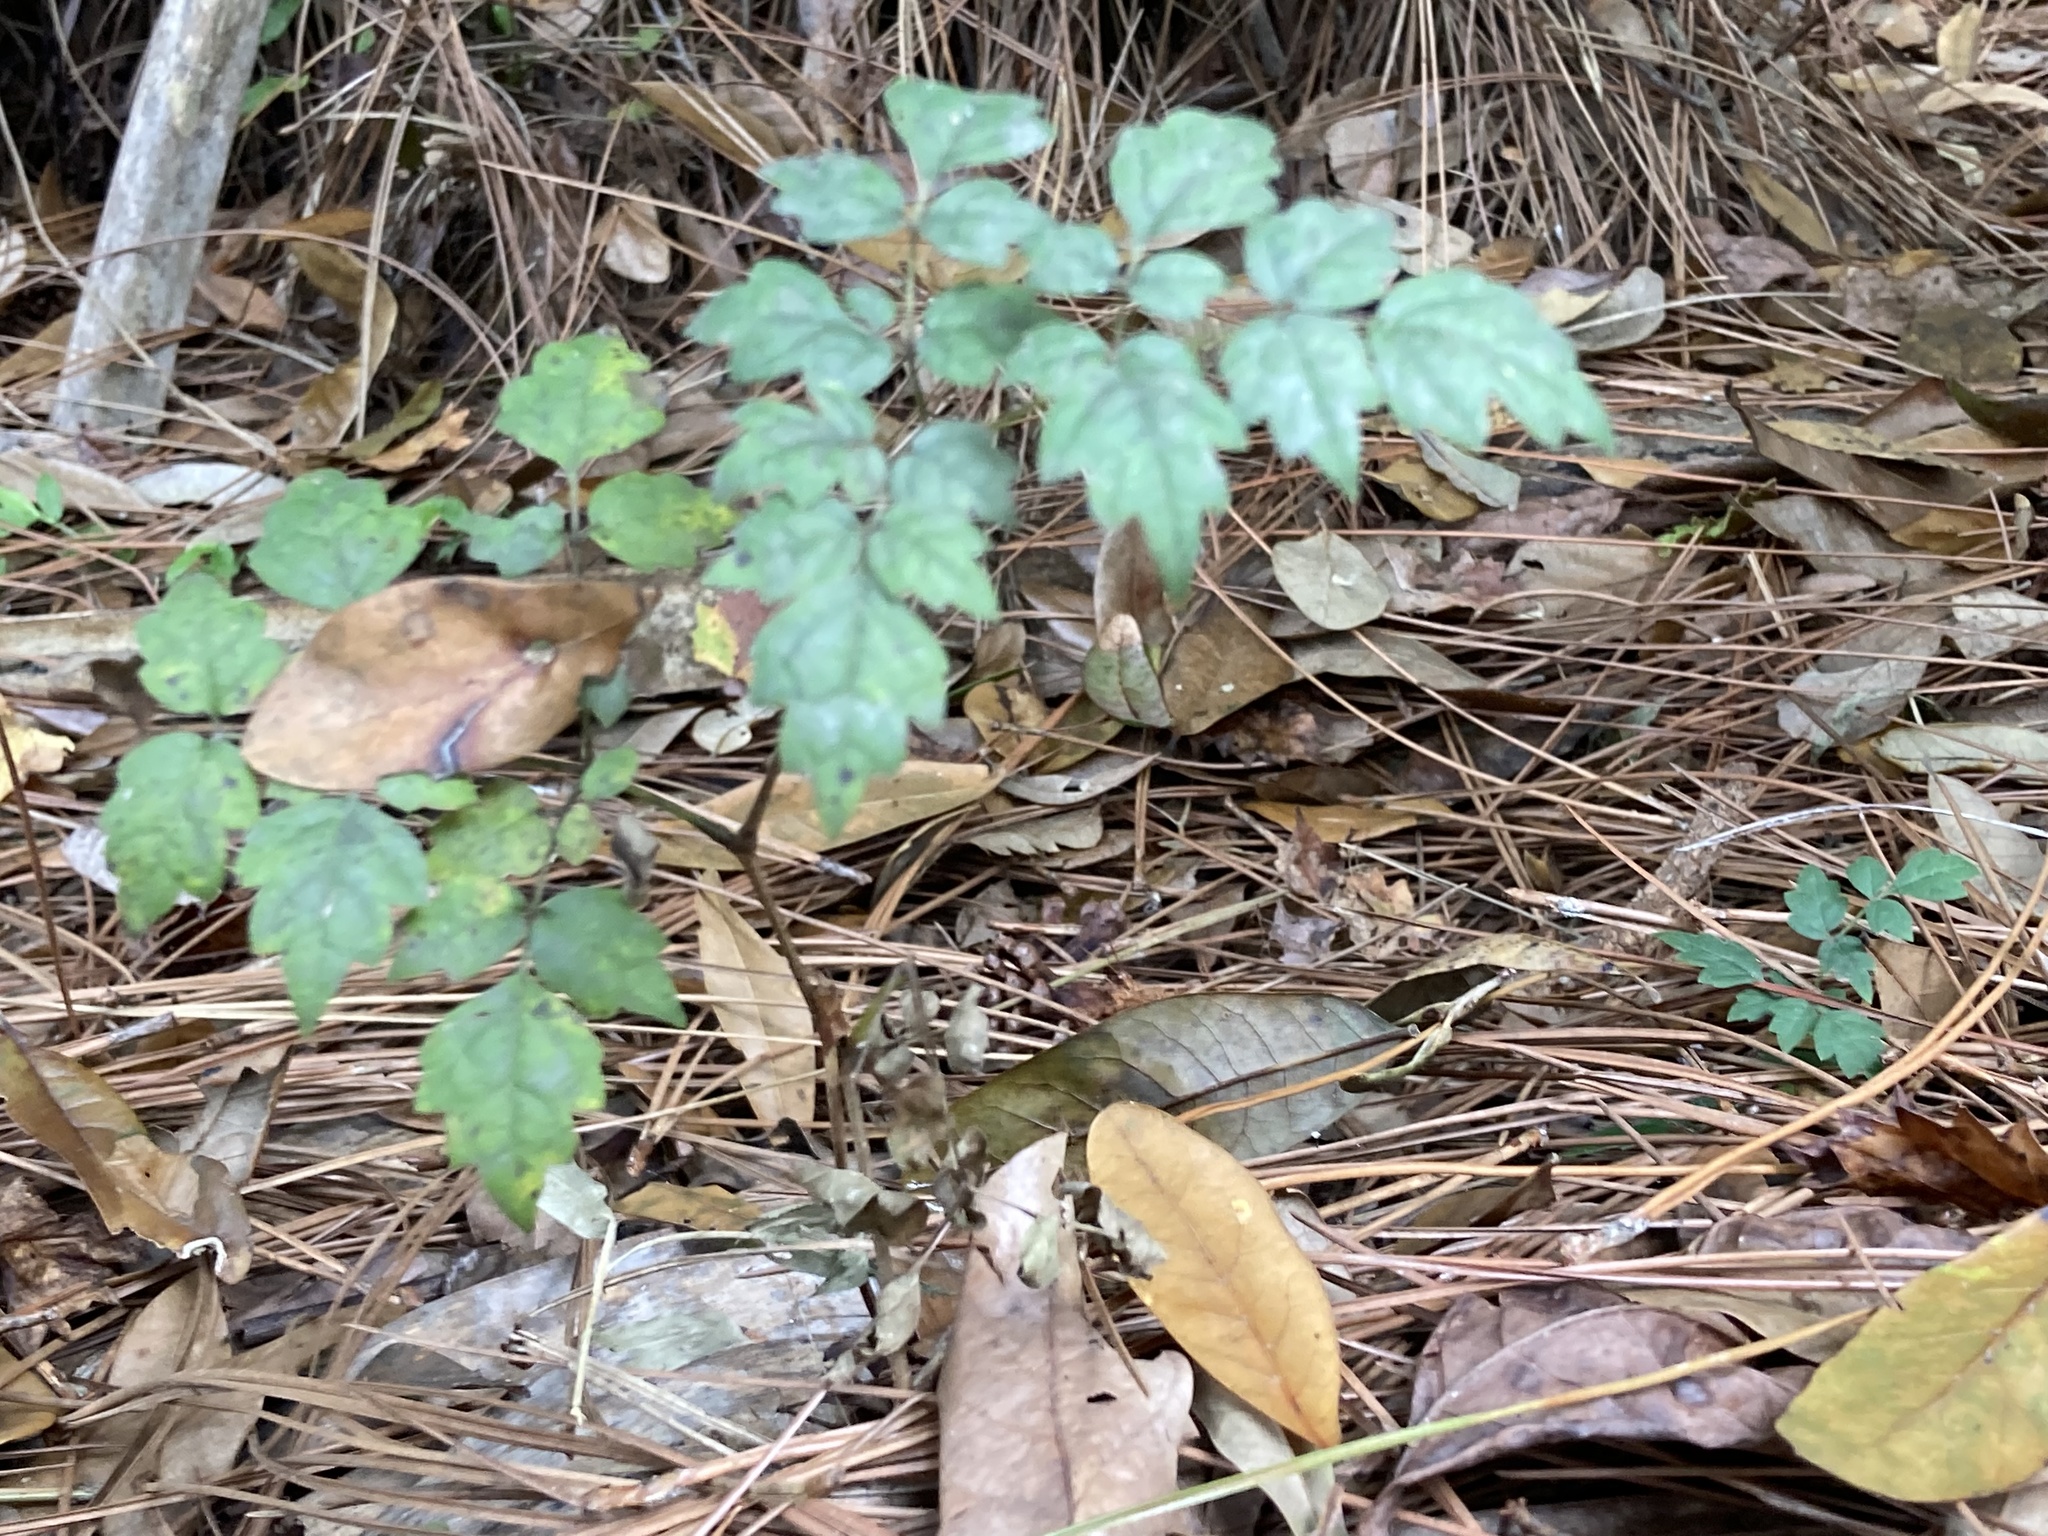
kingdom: Plantae
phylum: Tracheophyta
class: Magnoliopsida
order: Vitales
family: Vitaceae
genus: Nekemias
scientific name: Nekemias arborea
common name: Peppervine
